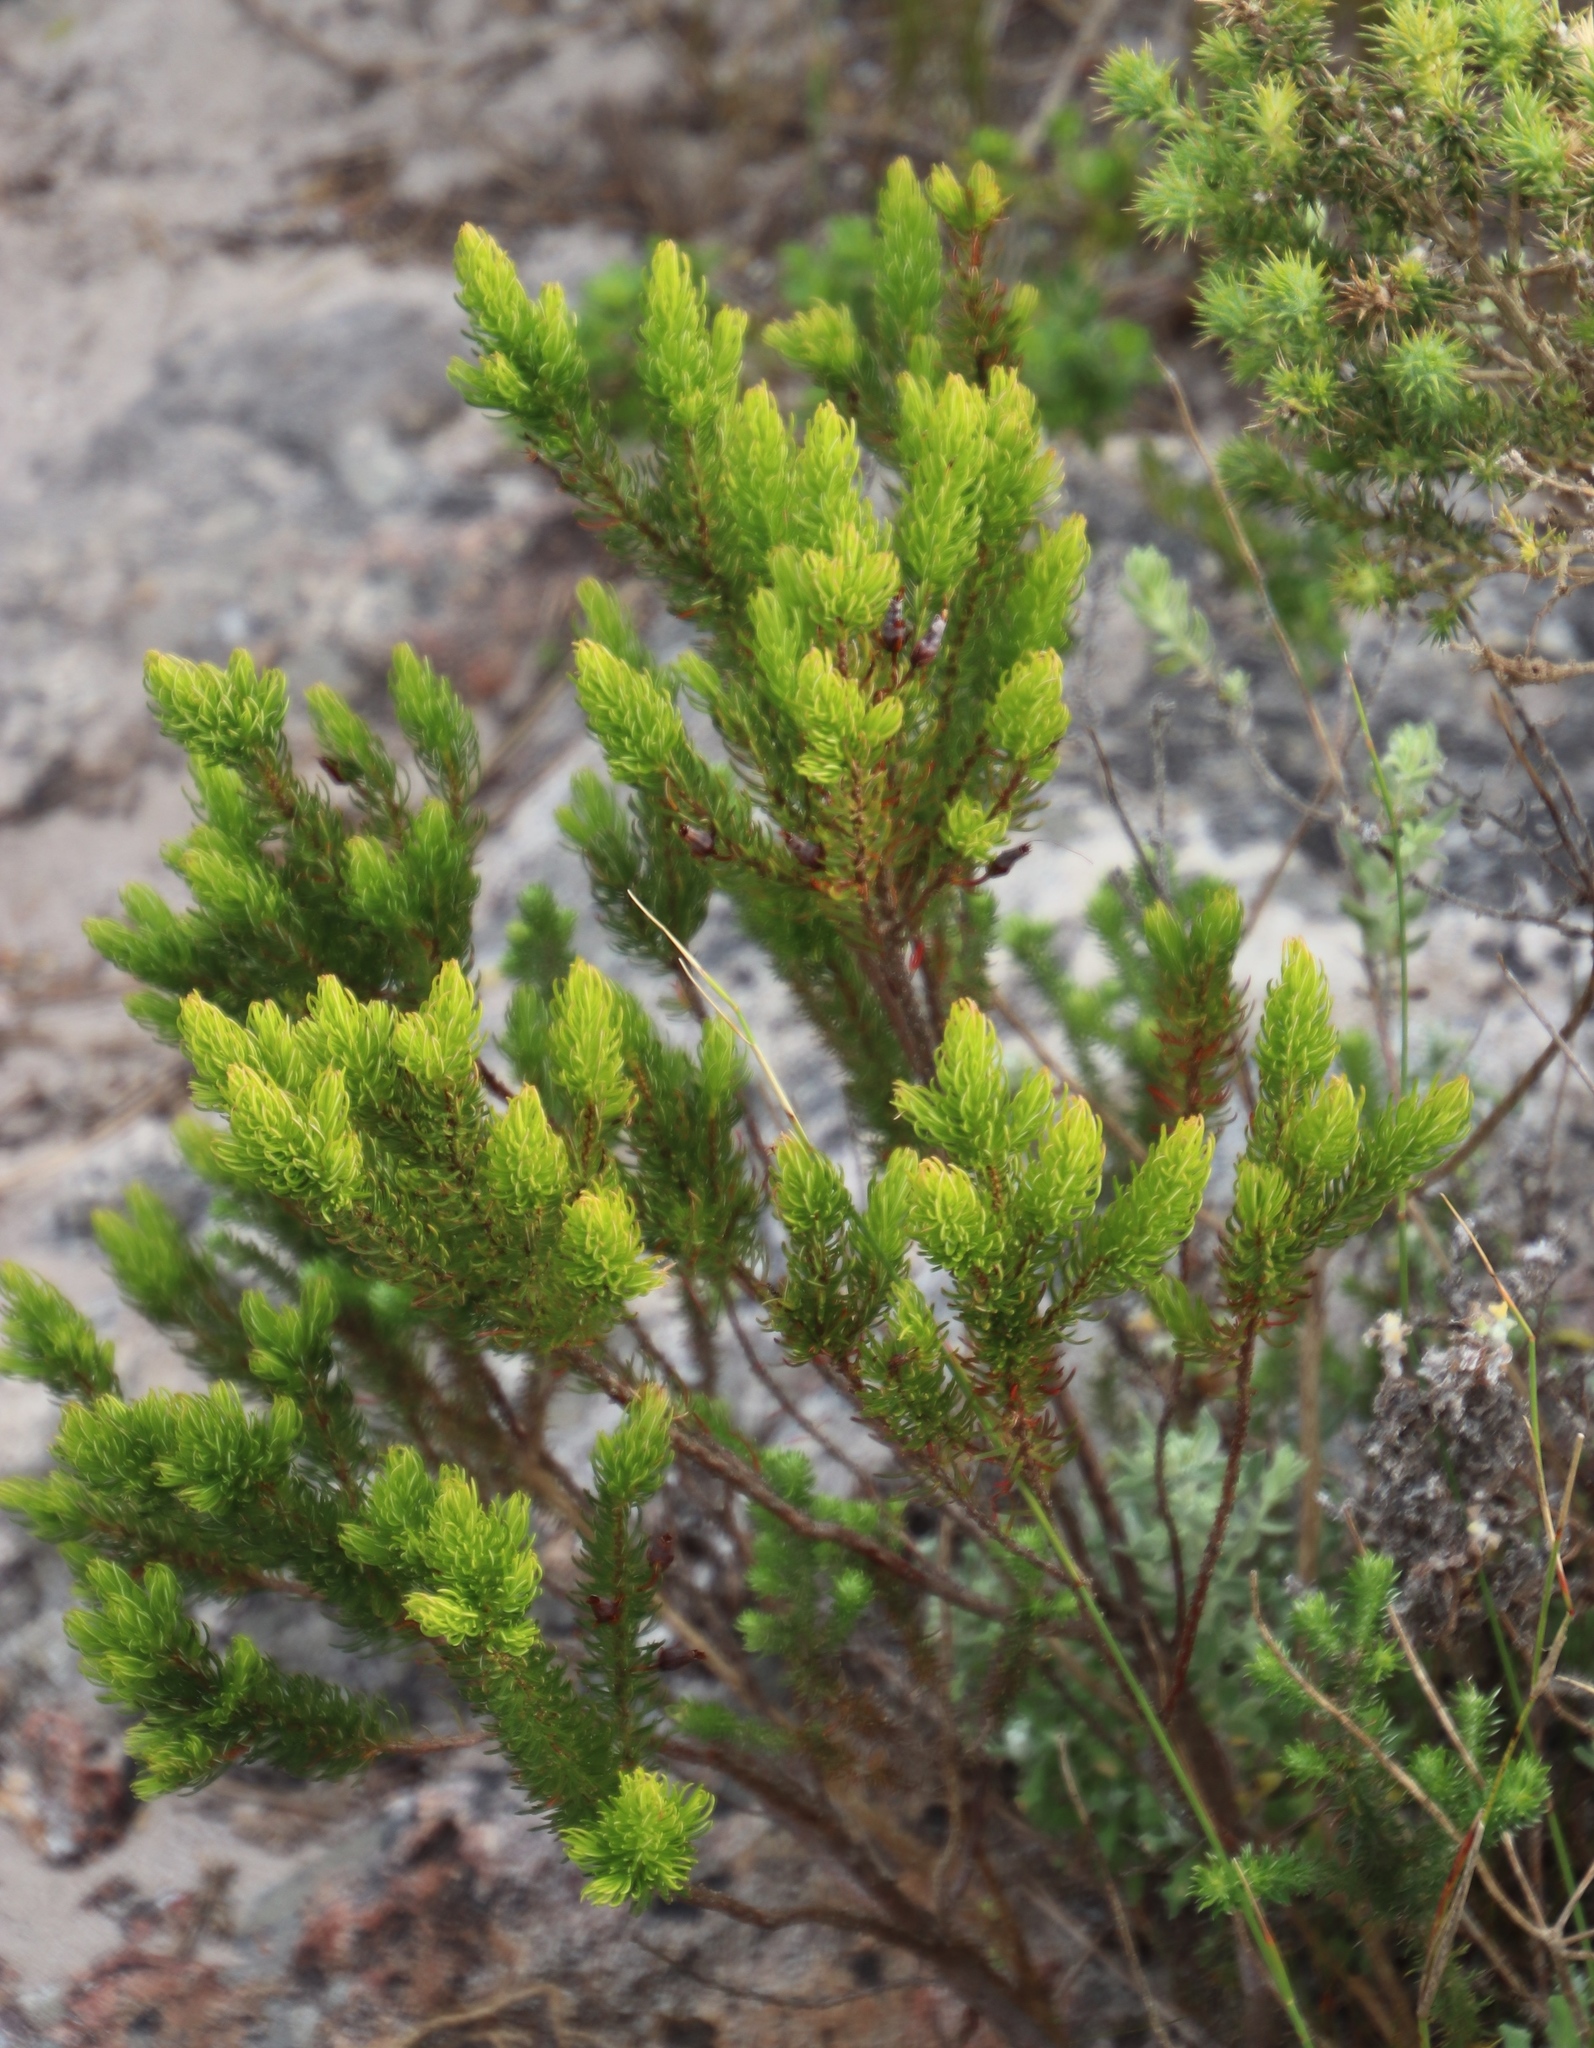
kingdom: Plantae
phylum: Tracheophyta
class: Magnoliopsida
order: Ericales
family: Ericaceae
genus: Erica
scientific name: Erica plukenetii
